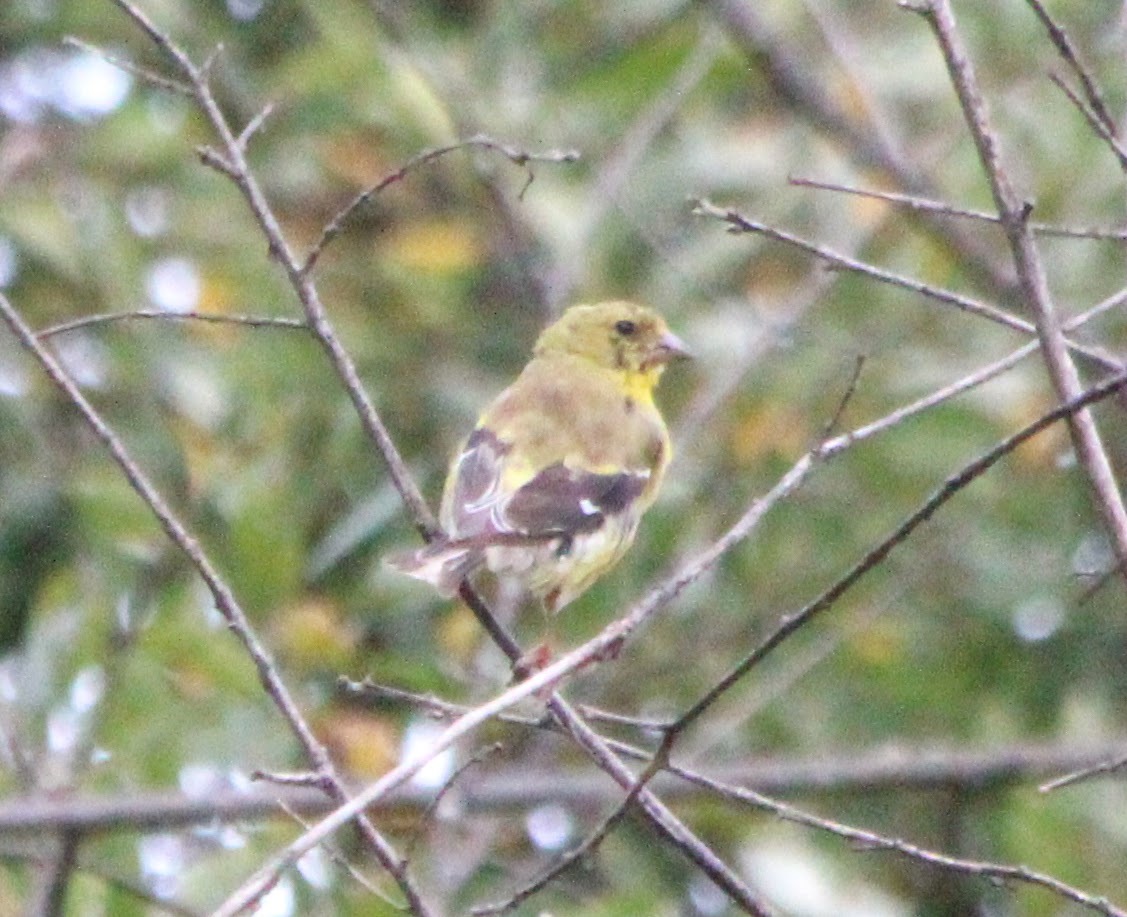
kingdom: Animalia
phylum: Chordata
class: Aves
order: Passeriformes
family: Fringillidae
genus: Spinus
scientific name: Spinus tristis
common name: American goldfinch
